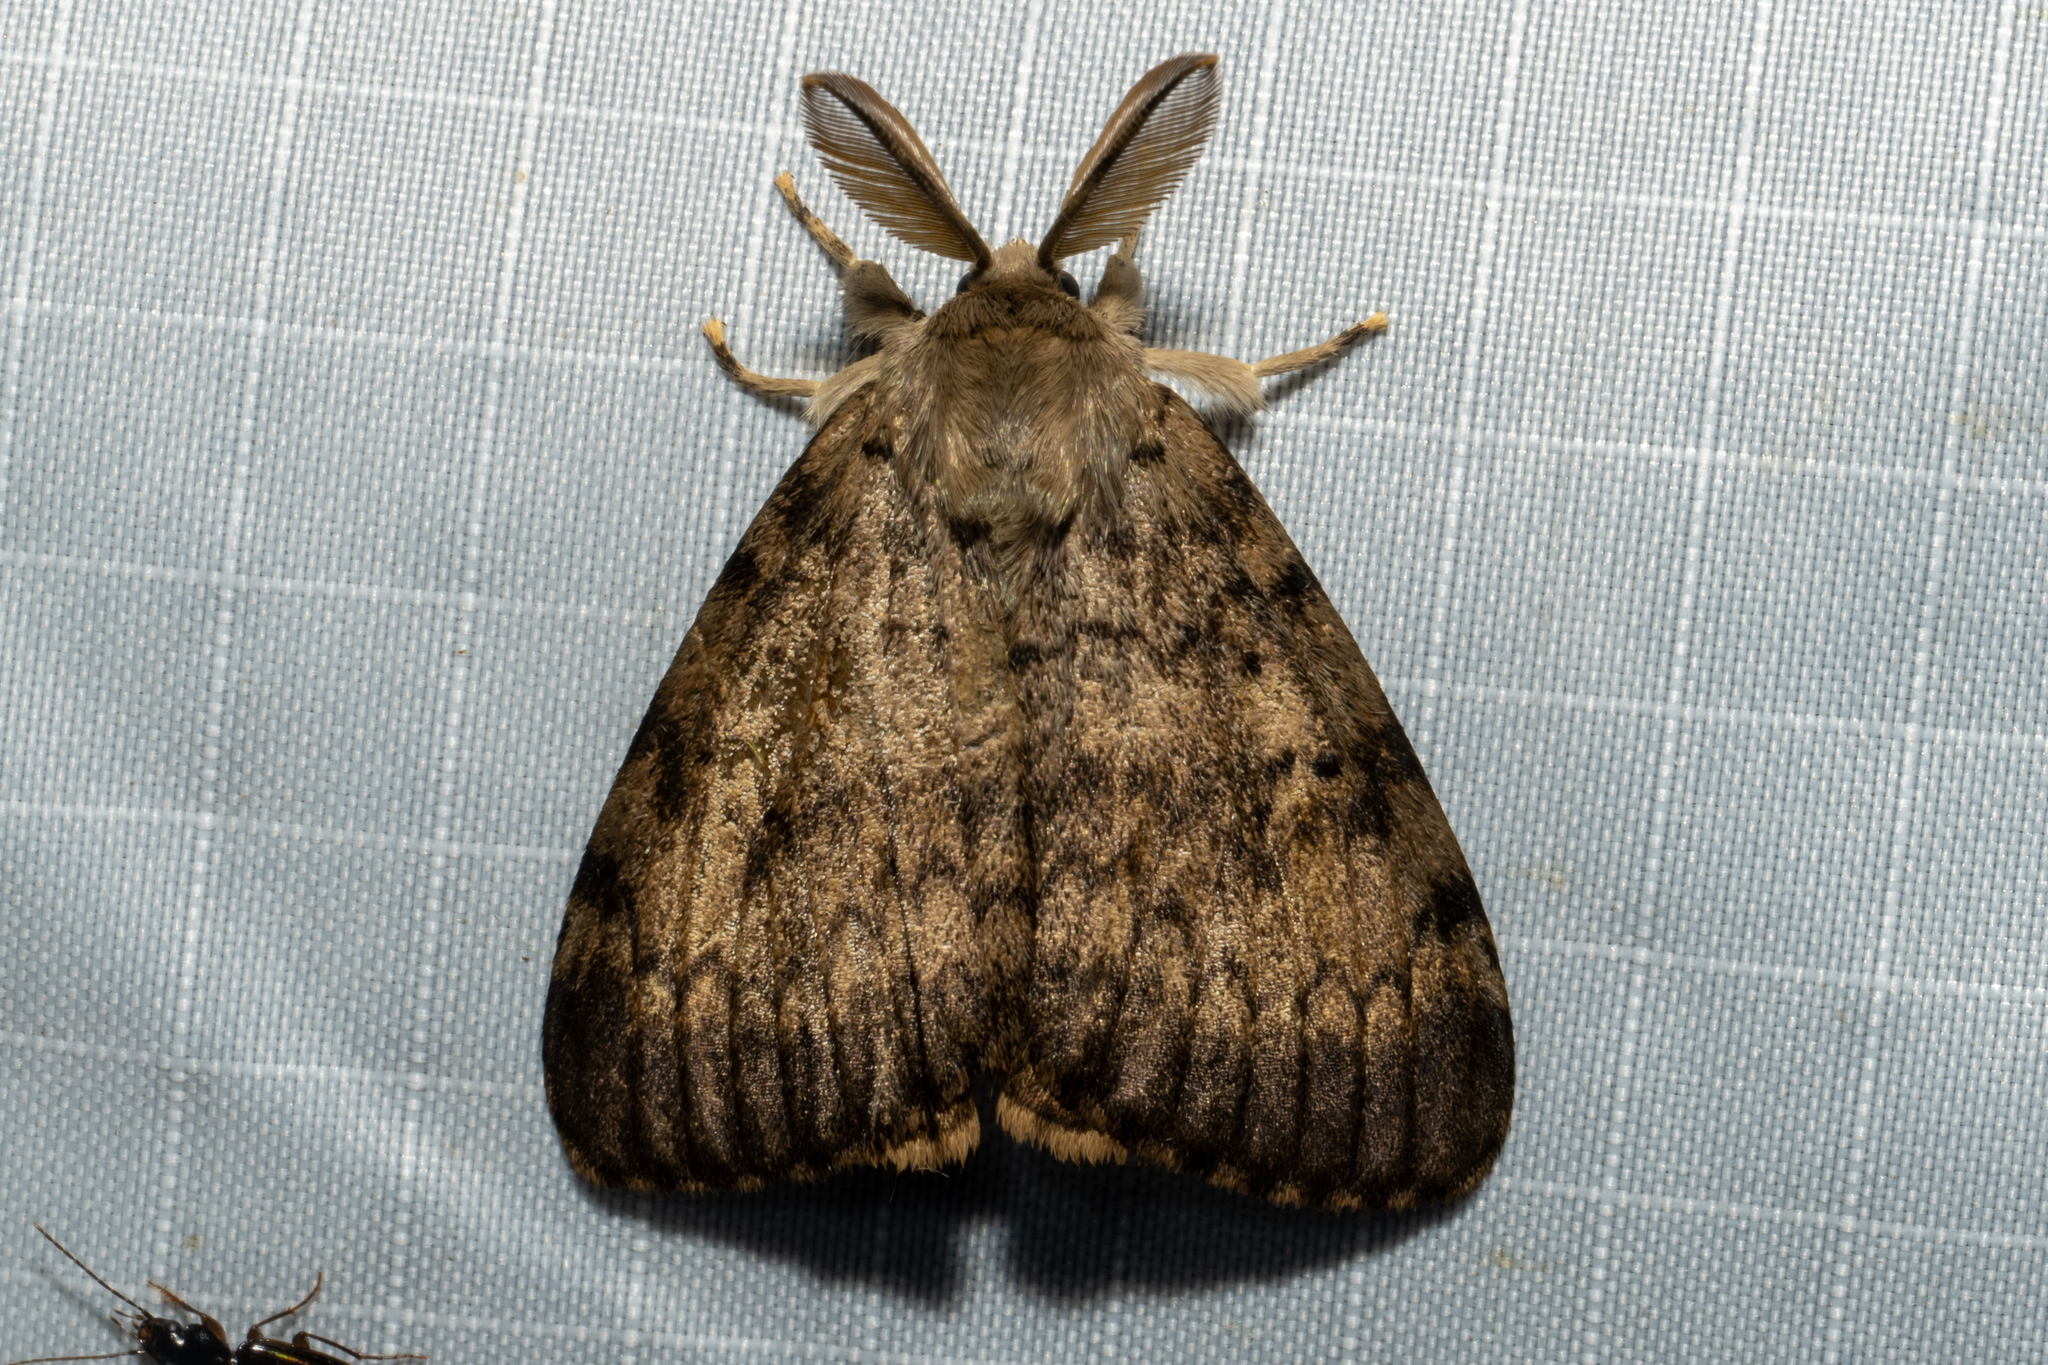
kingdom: Animalia
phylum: Arthropoda
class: Insecta
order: Lepidoptera
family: Erebidae
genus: Lymantria
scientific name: Lymantria dispar
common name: Gypsy moth
